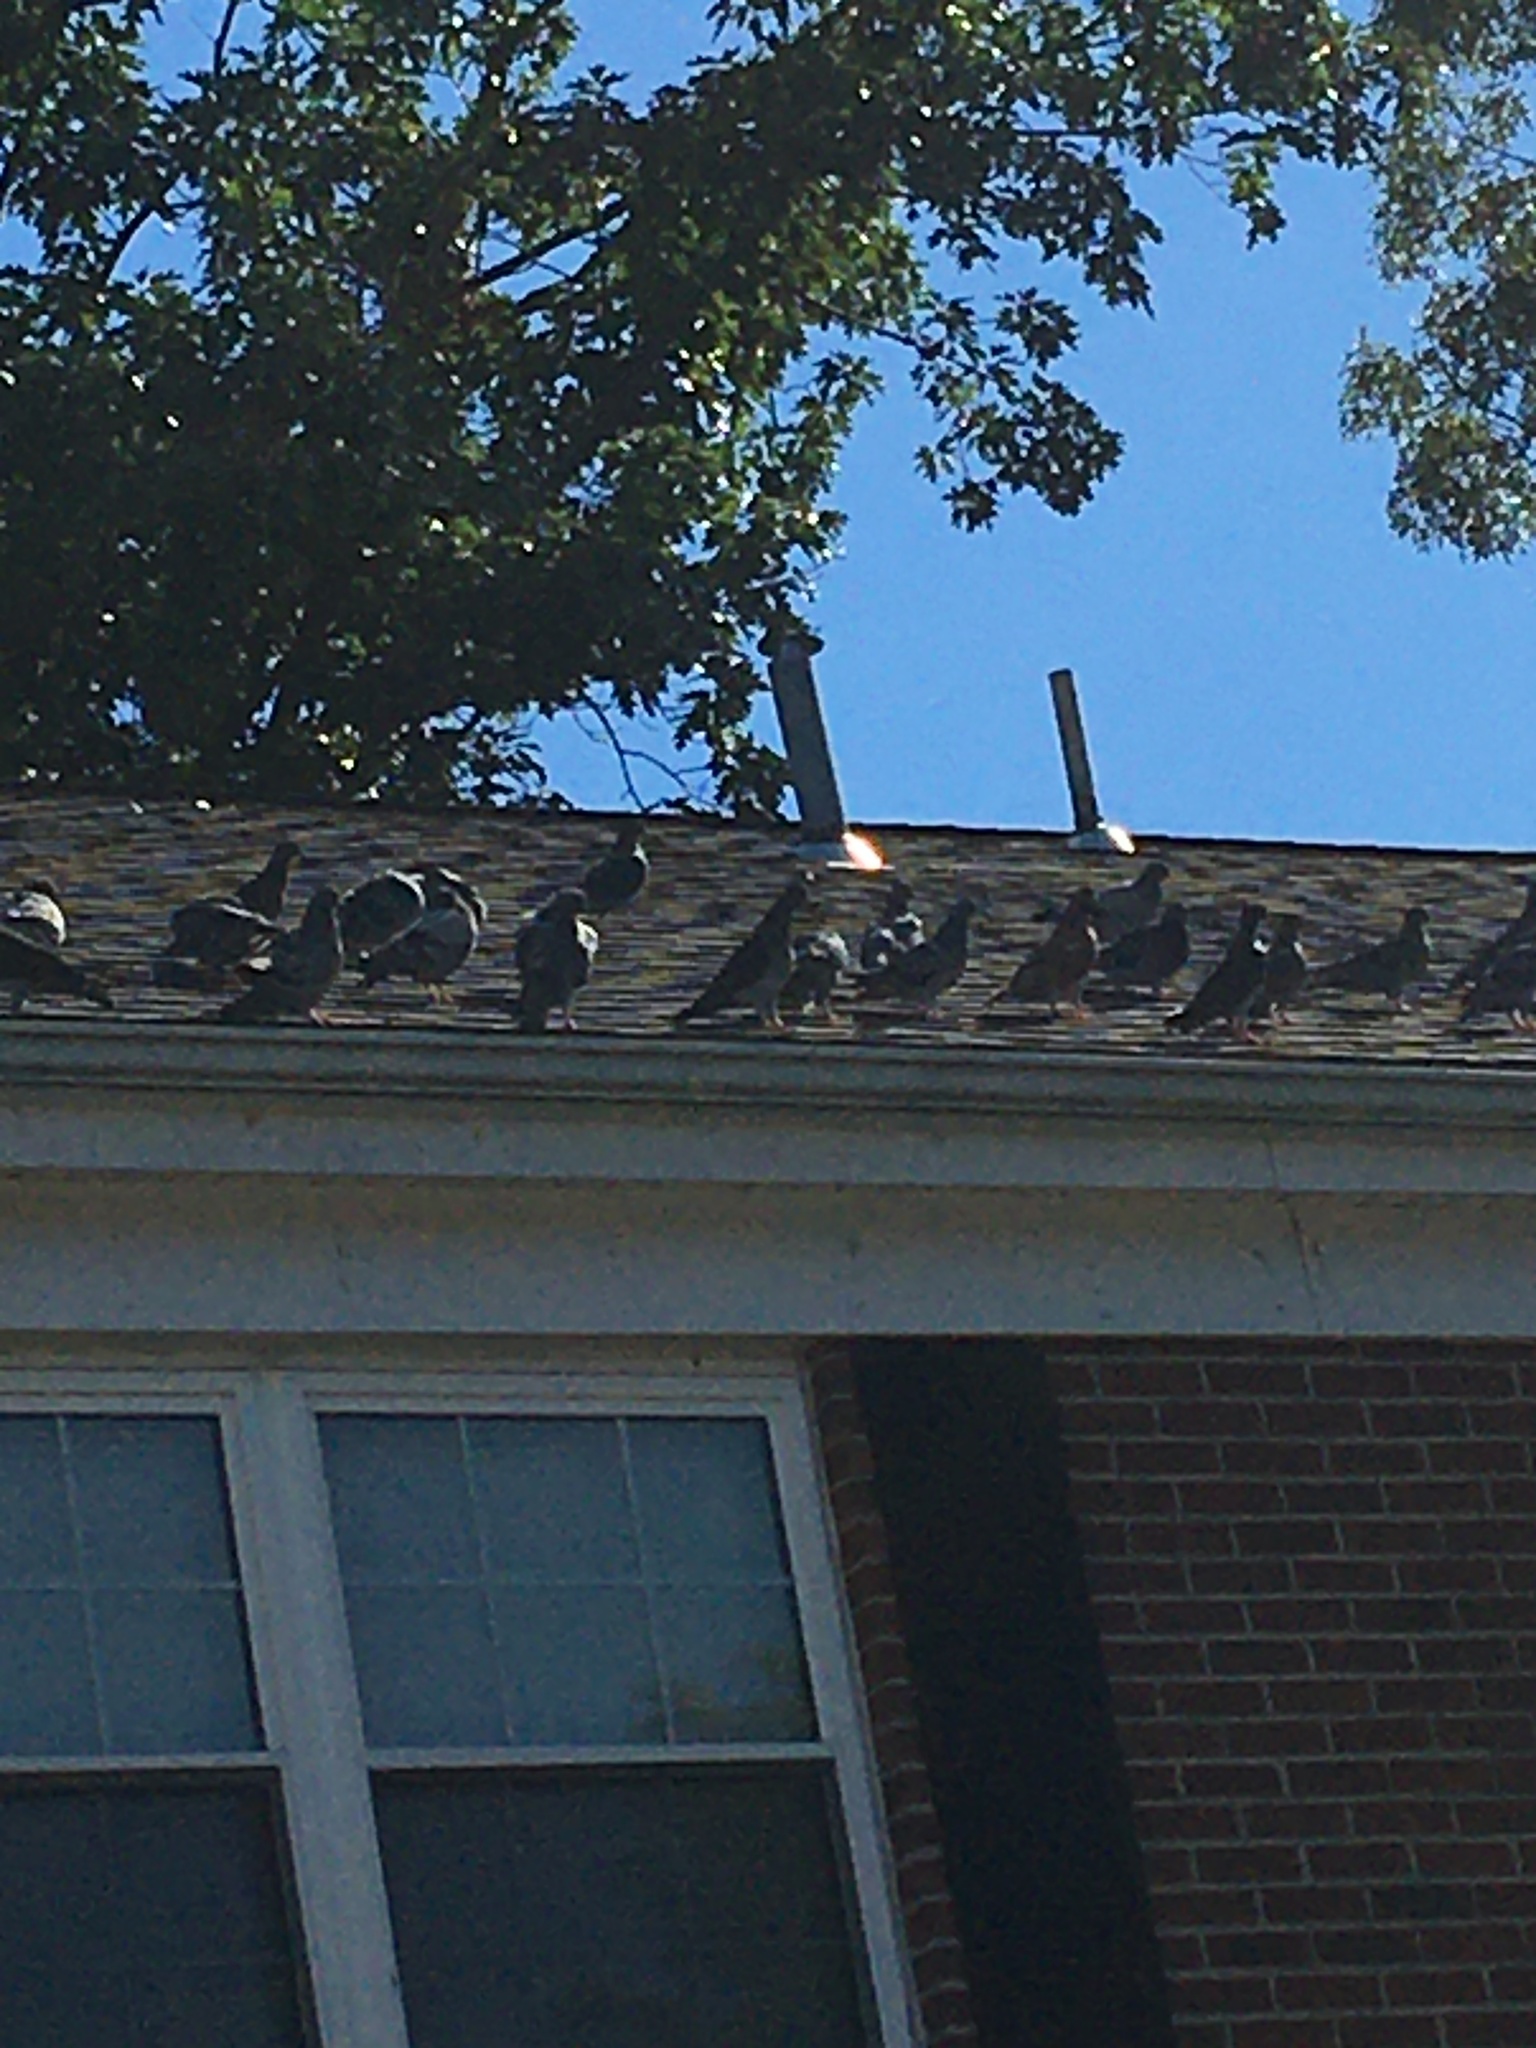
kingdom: Animalia
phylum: Chordata
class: Aves
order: Columbiformes
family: Columbidae
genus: Columba
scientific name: Columba livia
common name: Rock pigeon
